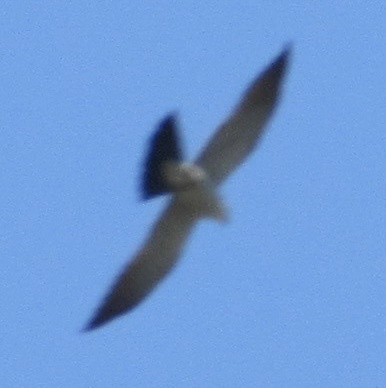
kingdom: Animalia
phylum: Chordata
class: Aves
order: Accipitriformes
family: Accipitridae
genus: Ictinia
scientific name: Ictinia mississippiensis
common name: Mississippi kite
